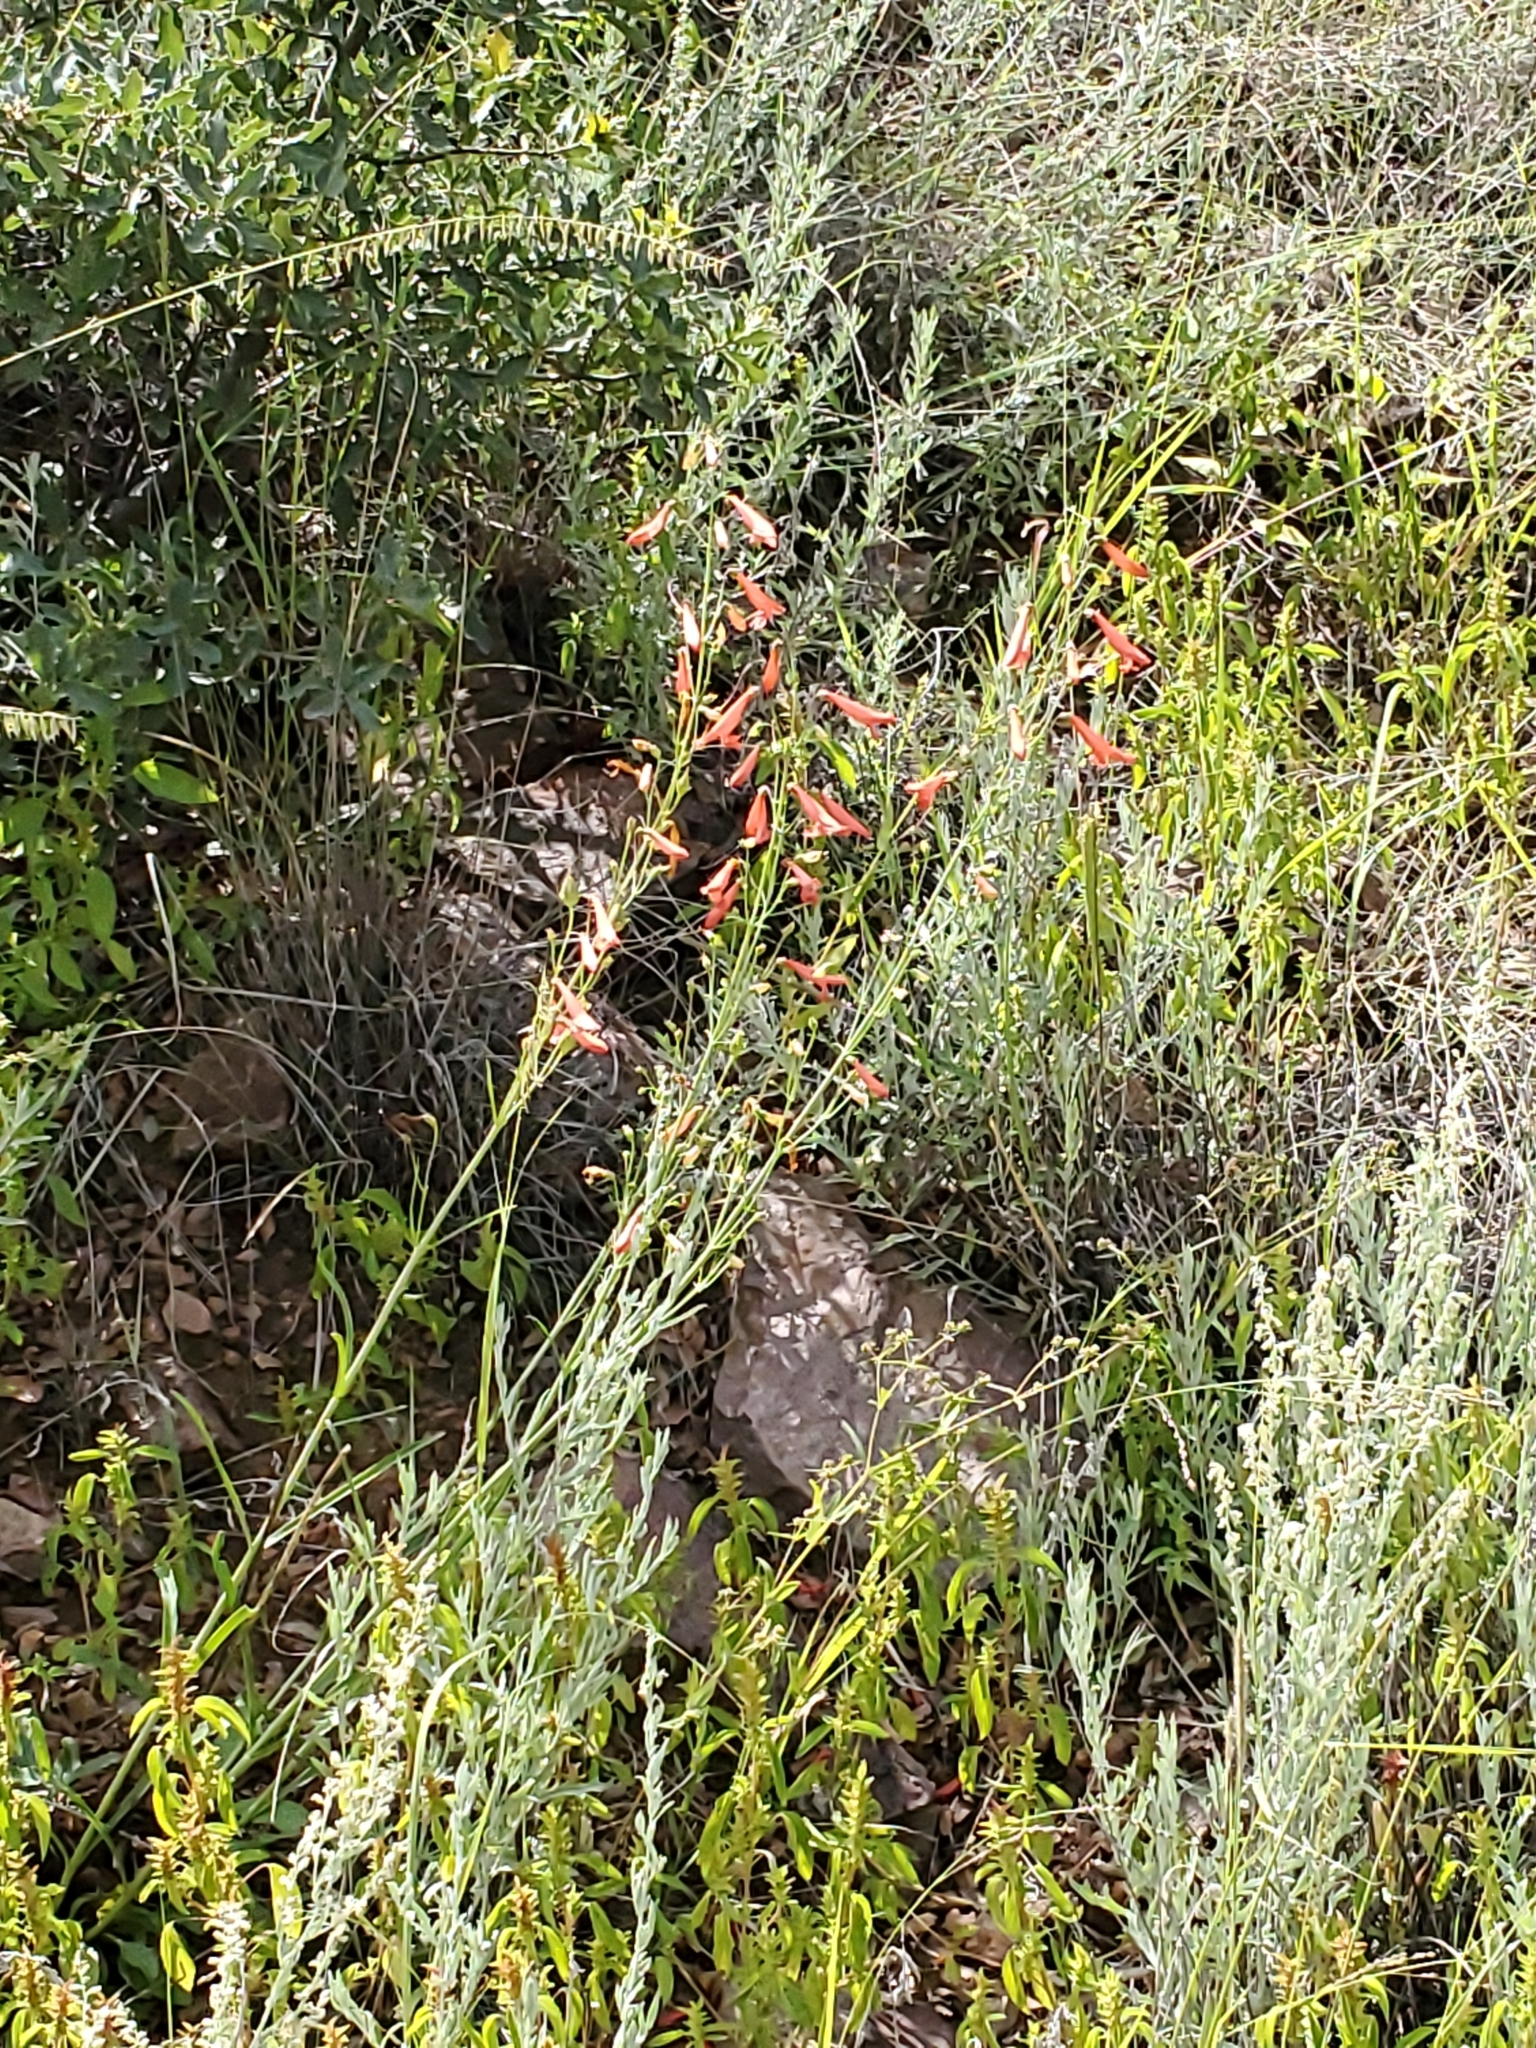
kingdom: Plantae
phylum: Tracheophyta
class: Magnoliopsida
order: Lamiales
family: Plantaginaceae
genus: Penstemon
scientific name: Penstemon barbatus
